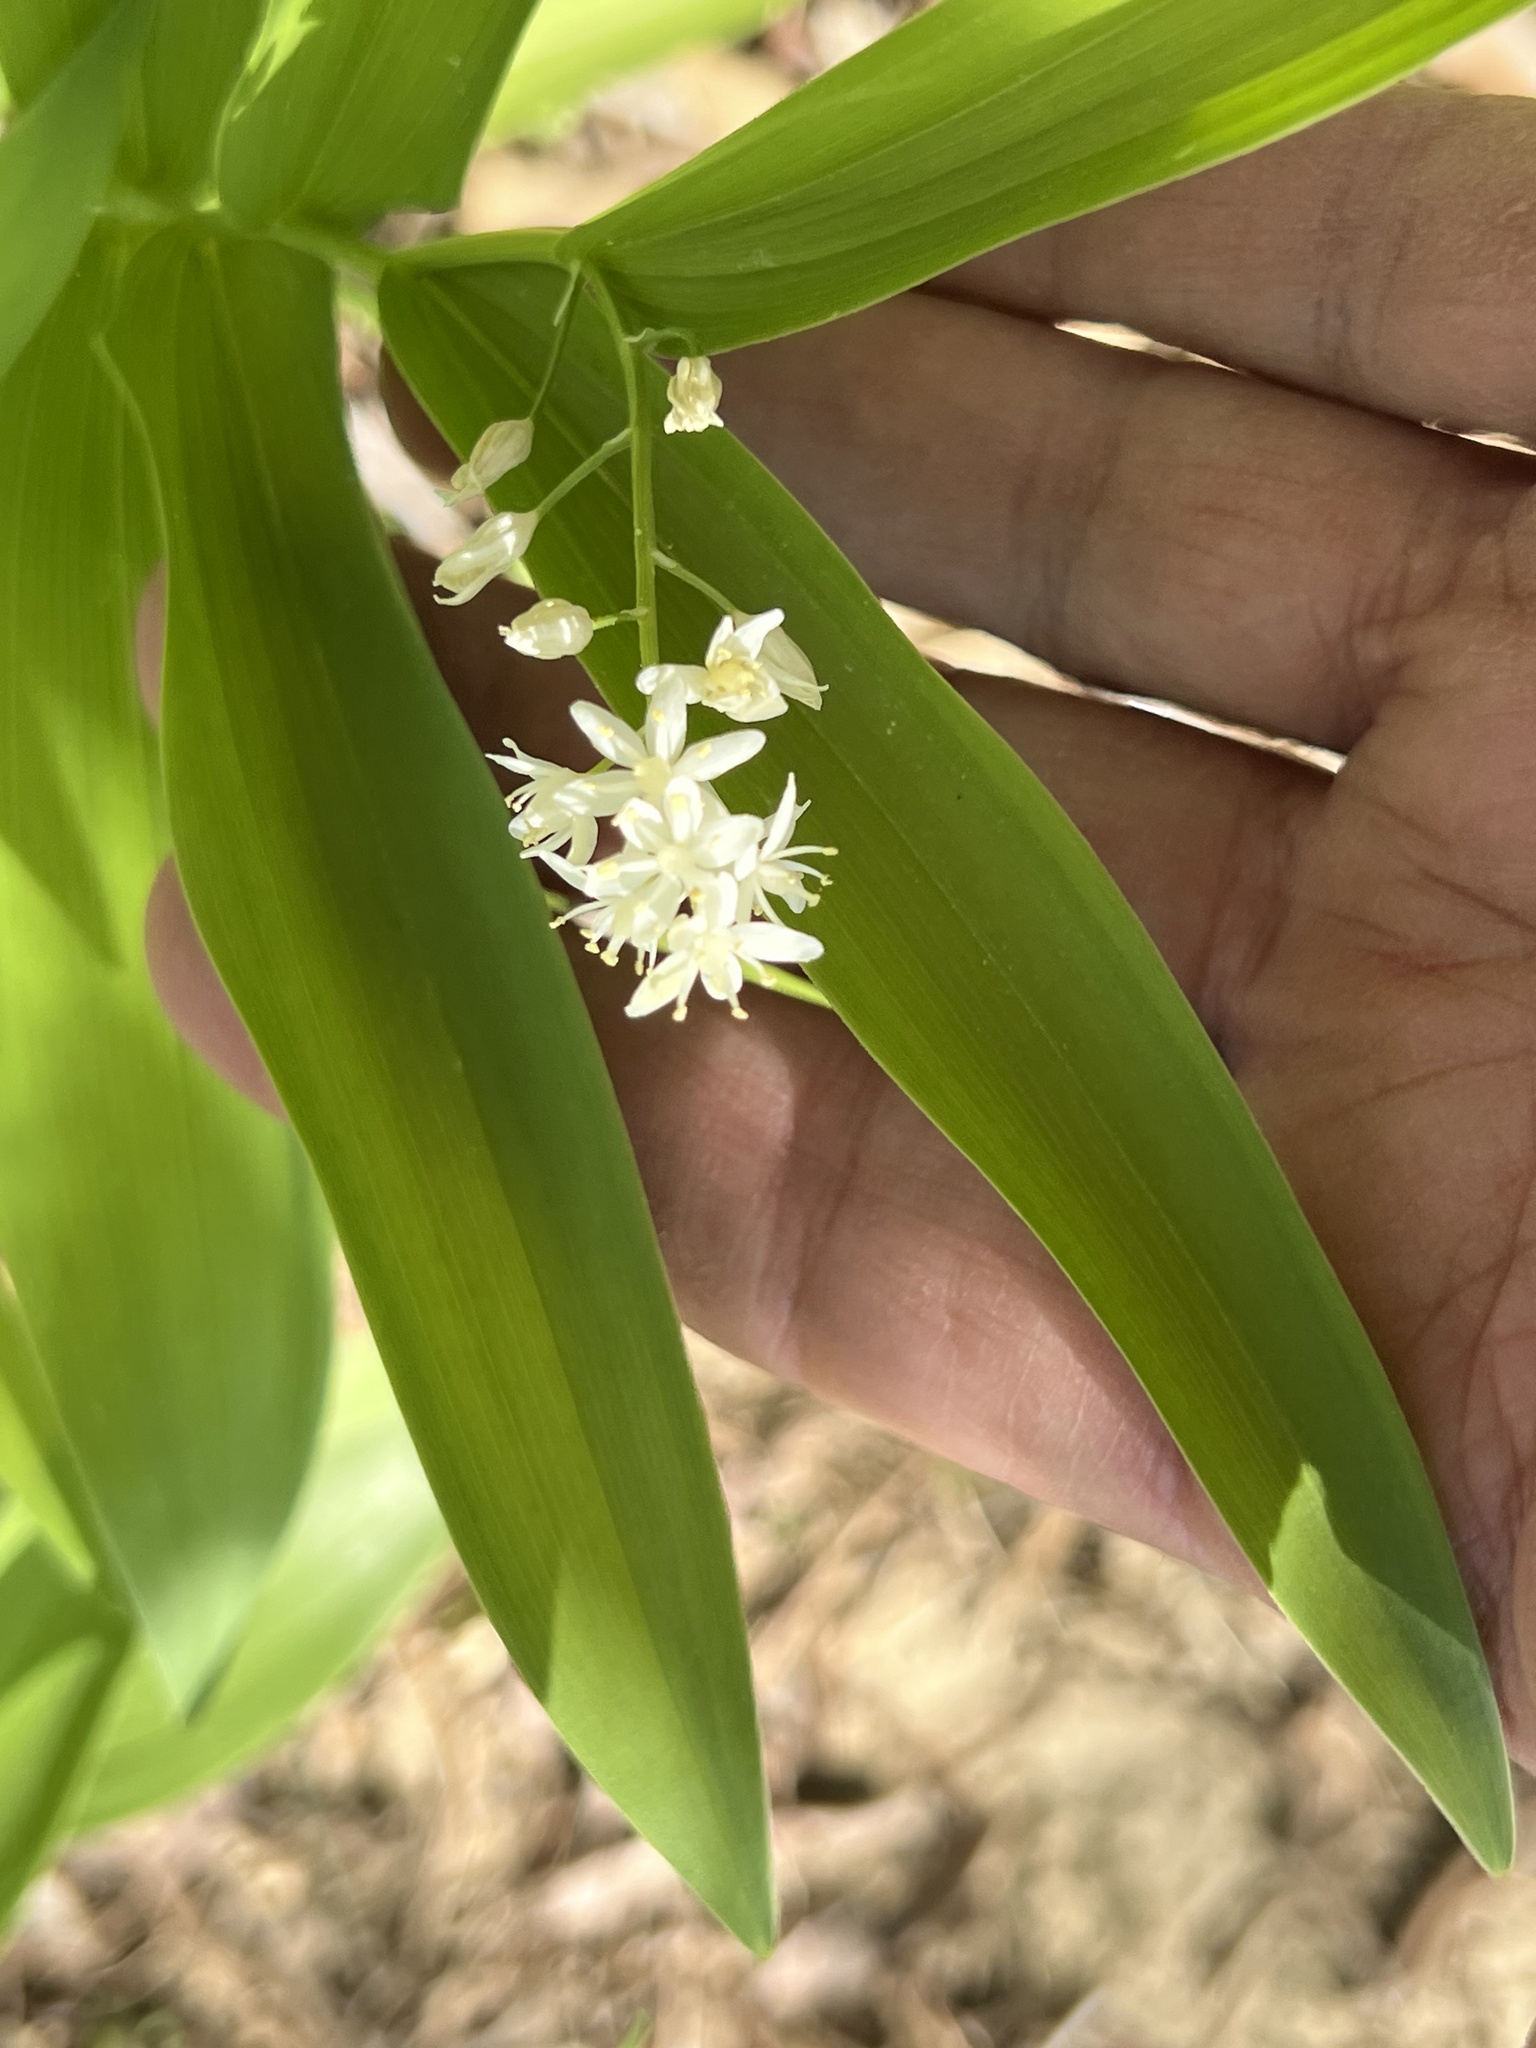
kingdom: Plantae
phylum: Tracheophyta
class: Liliopsida
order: Asparagales
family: Asparagaceae
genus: Maianthemum
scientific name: Maianthemum stellatum
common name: Little false solomon's seal
